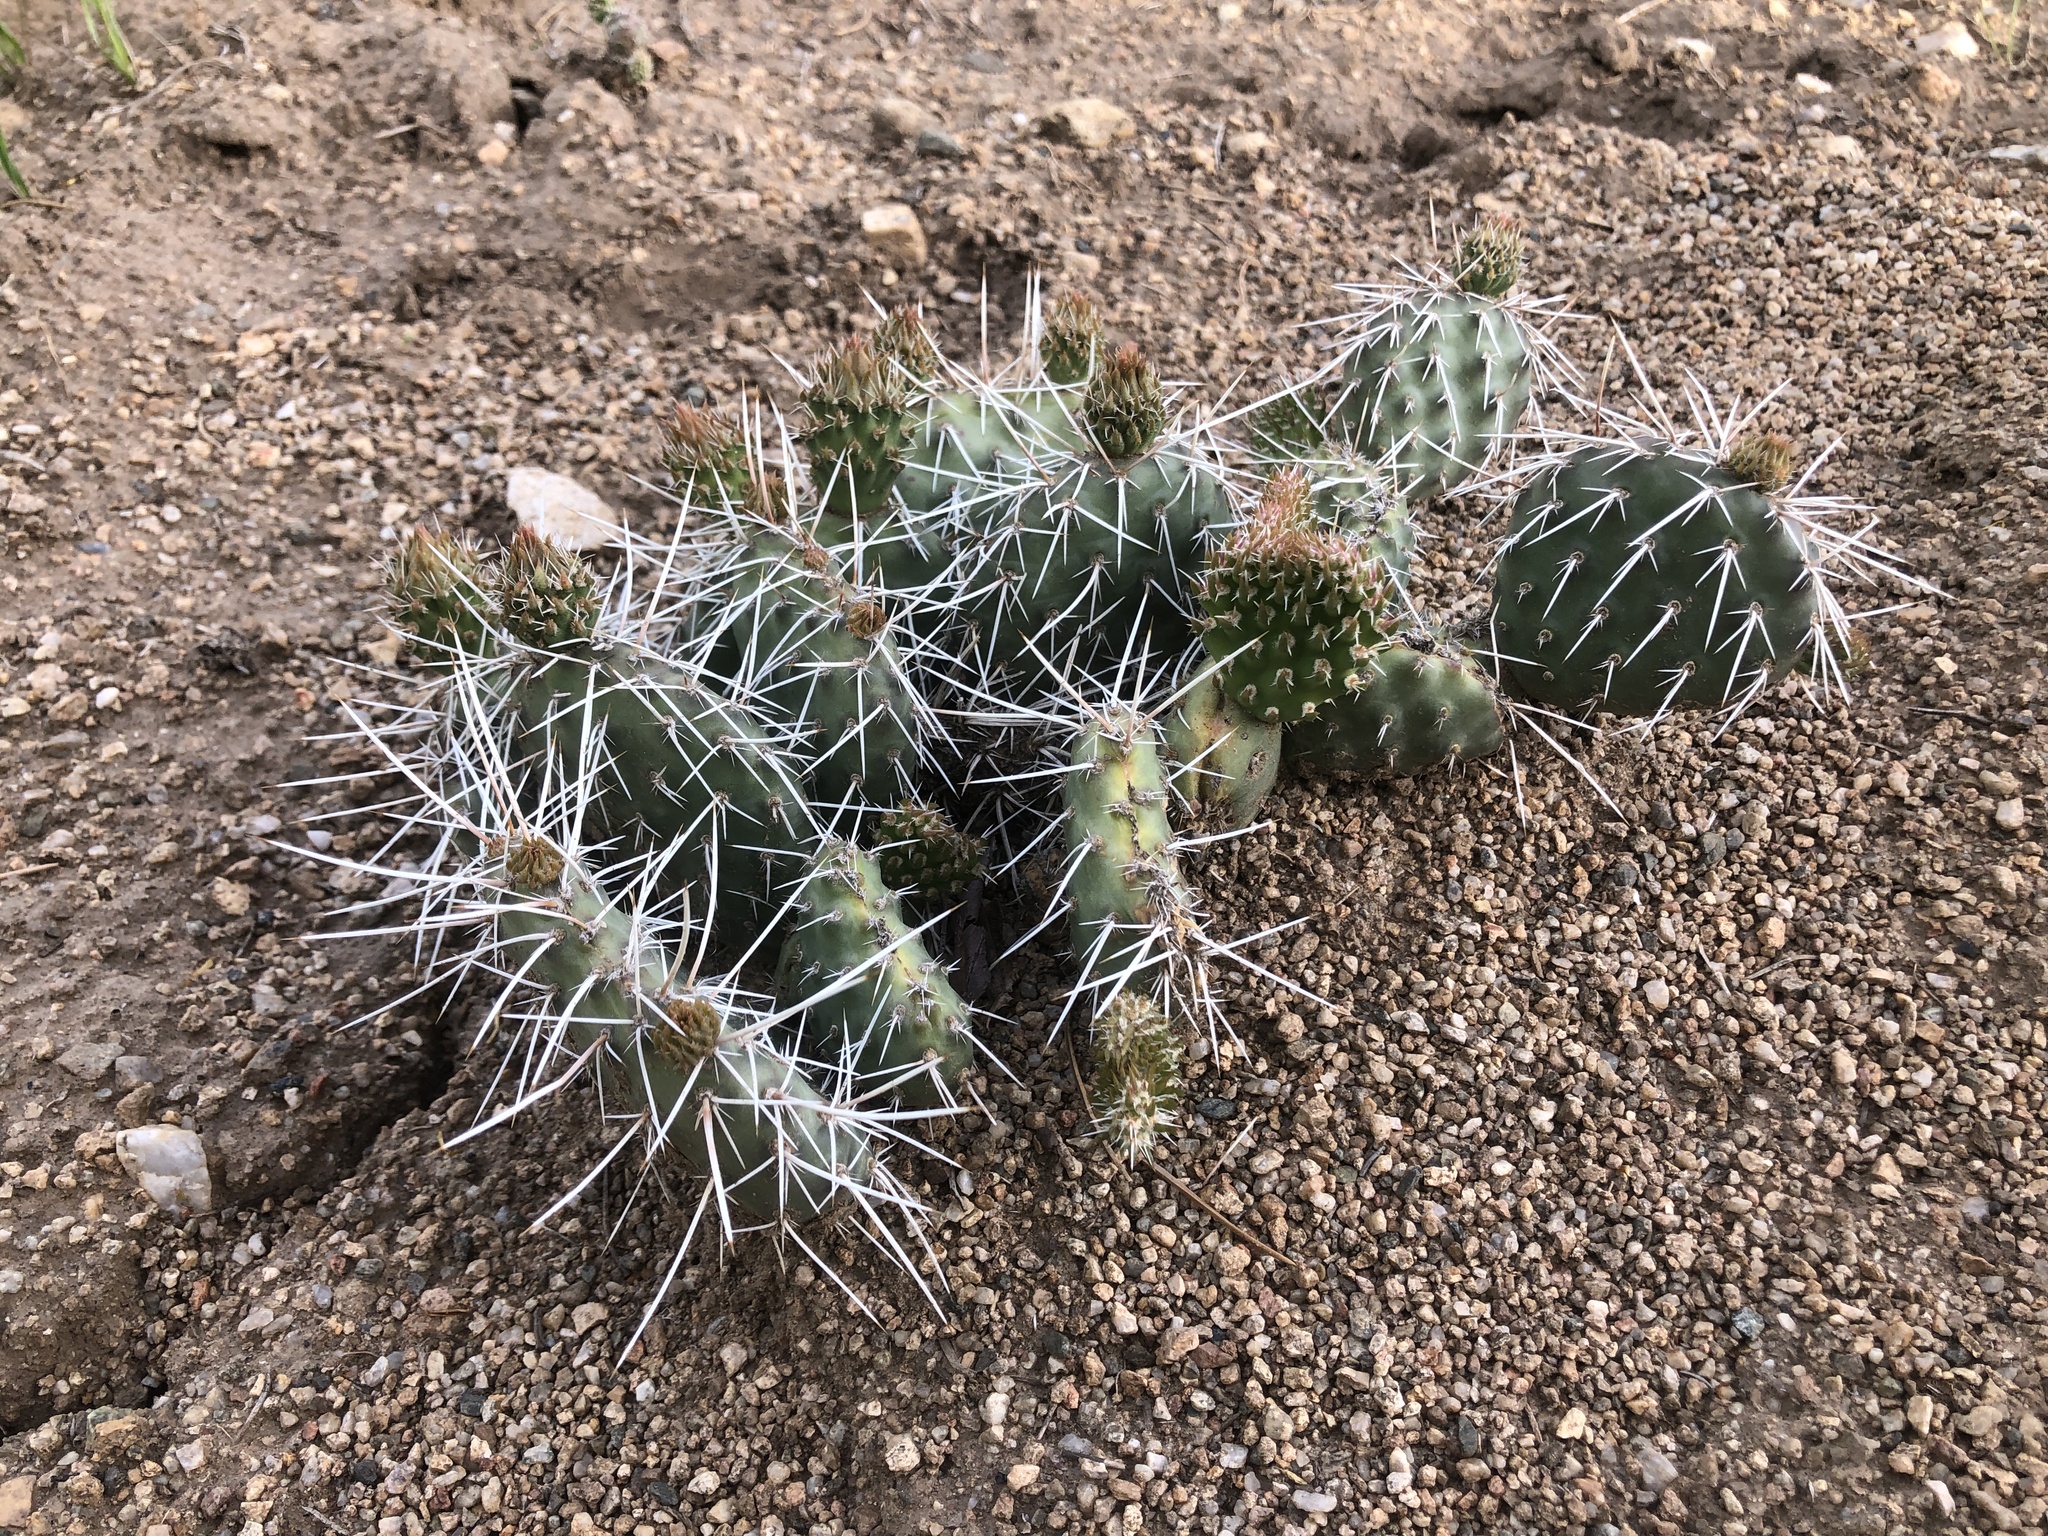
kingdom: Plantae
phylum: Tracheophyta
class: Magnoliopsida
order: Caryophyllales
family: Cactaceae
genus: Opuntia
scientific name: Opuntia polyacantha
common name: Plains prickly-pear
